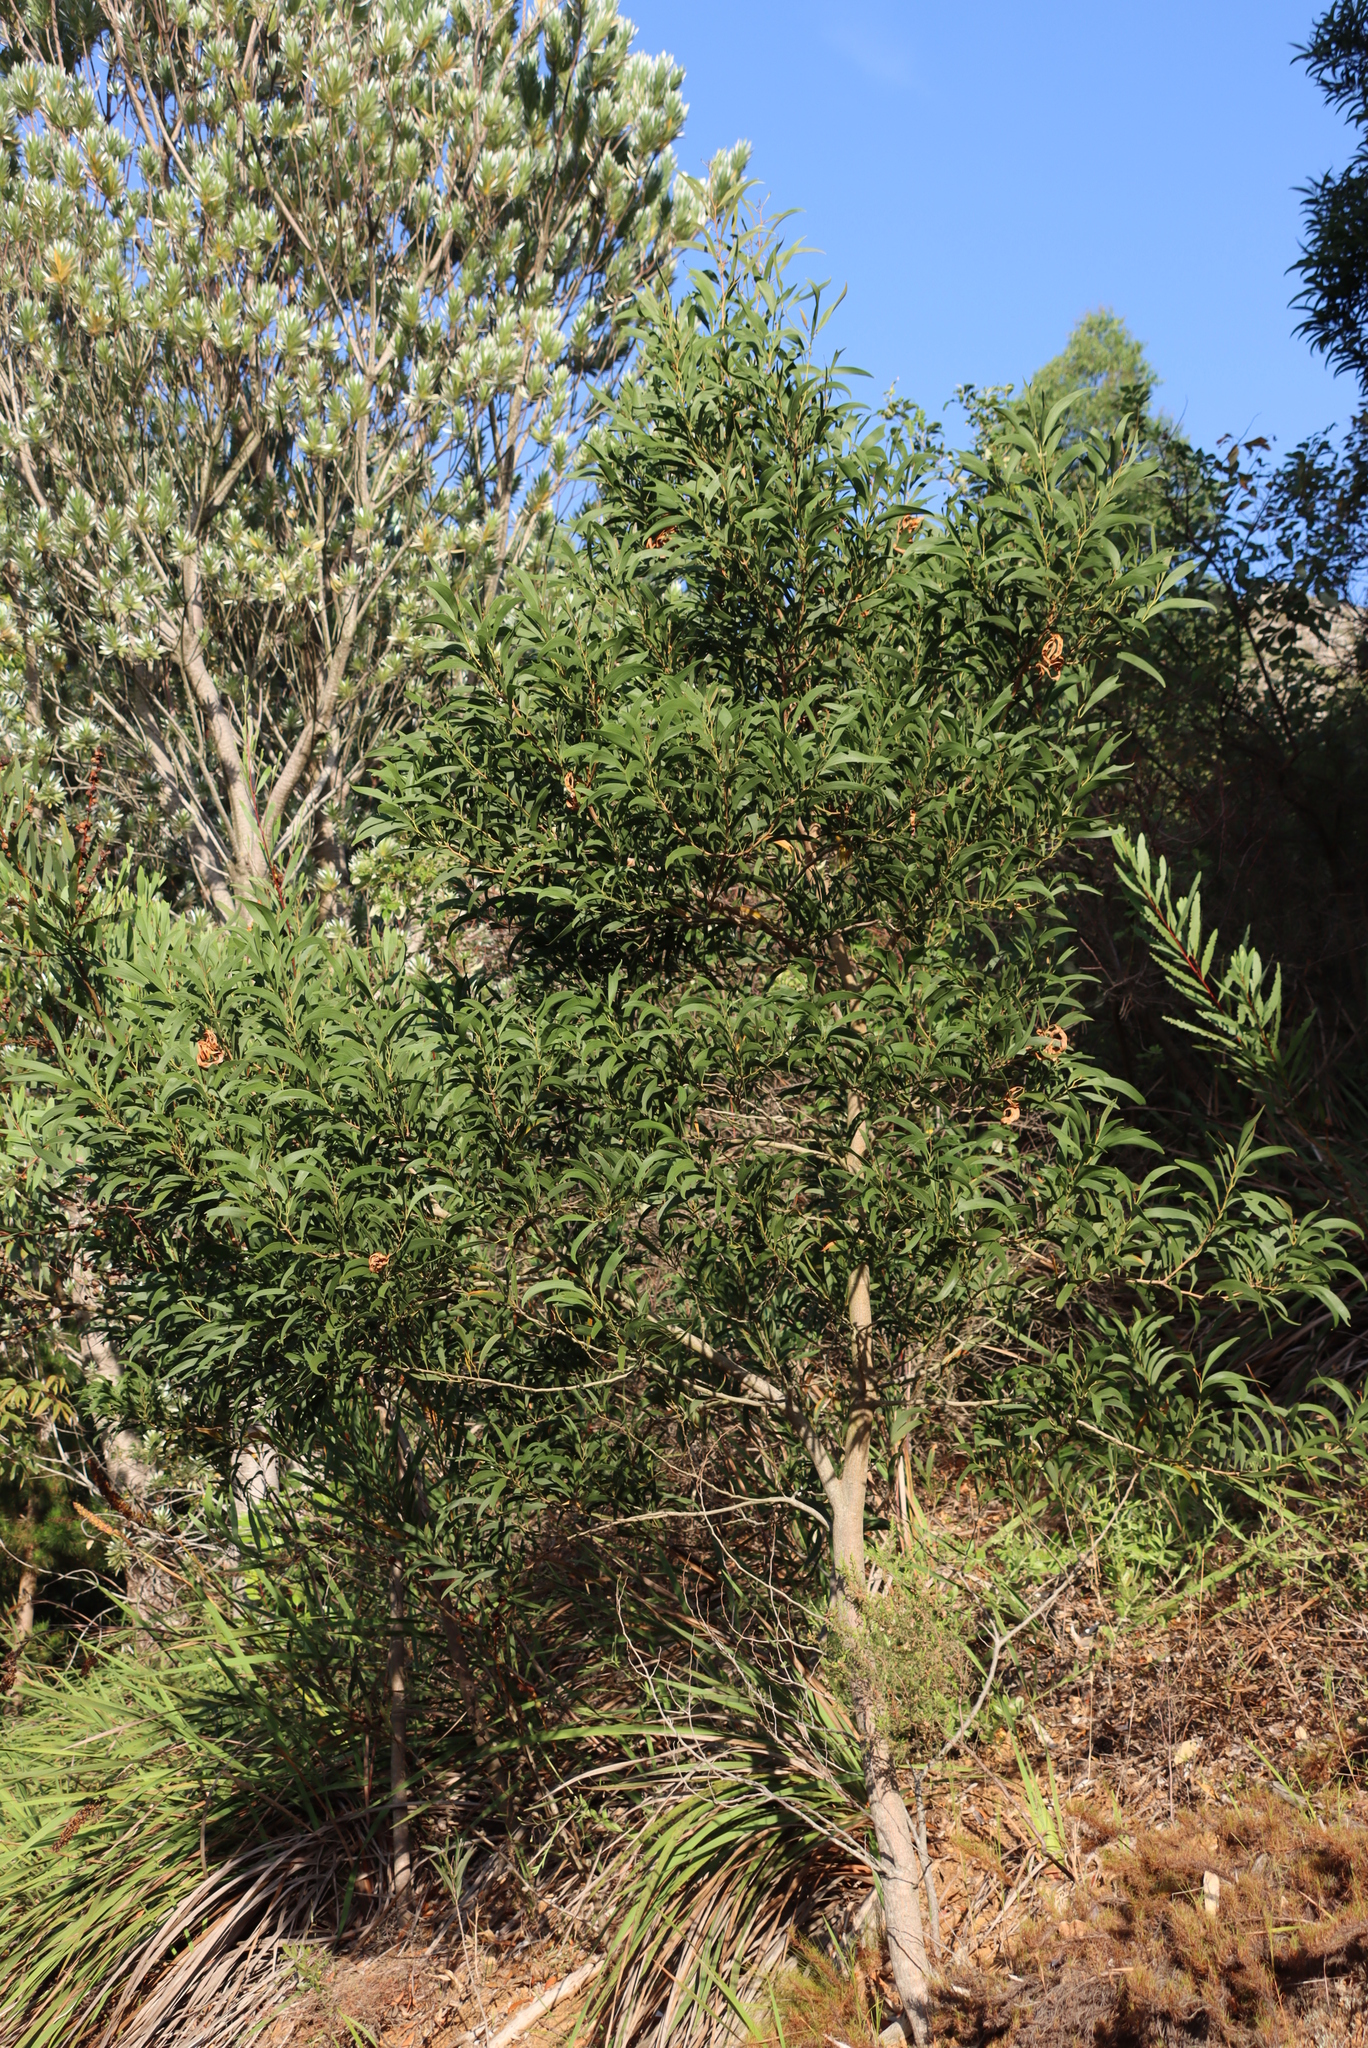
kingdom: Plantae
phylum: Tracheophyta
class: Magnoliopsida
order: Fabales
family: Fabaceae
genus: Acacia
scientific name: Acacia melanoxylon
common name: Blackwood
